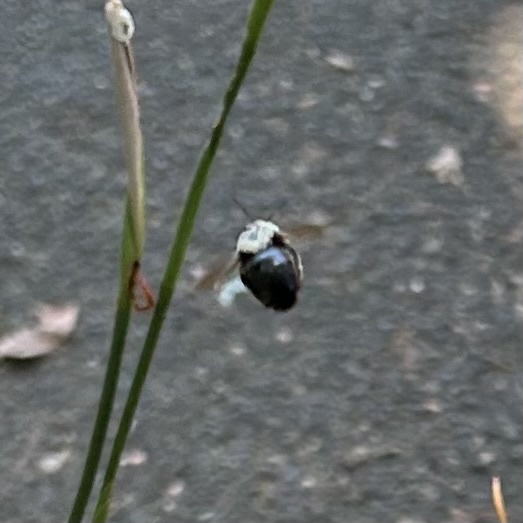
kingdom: Animalia
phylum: Arthropoda
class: Insecta
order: Hymenoptera
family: Apidae
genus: Xylocopa
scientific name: Xylocopa tabaniformis
